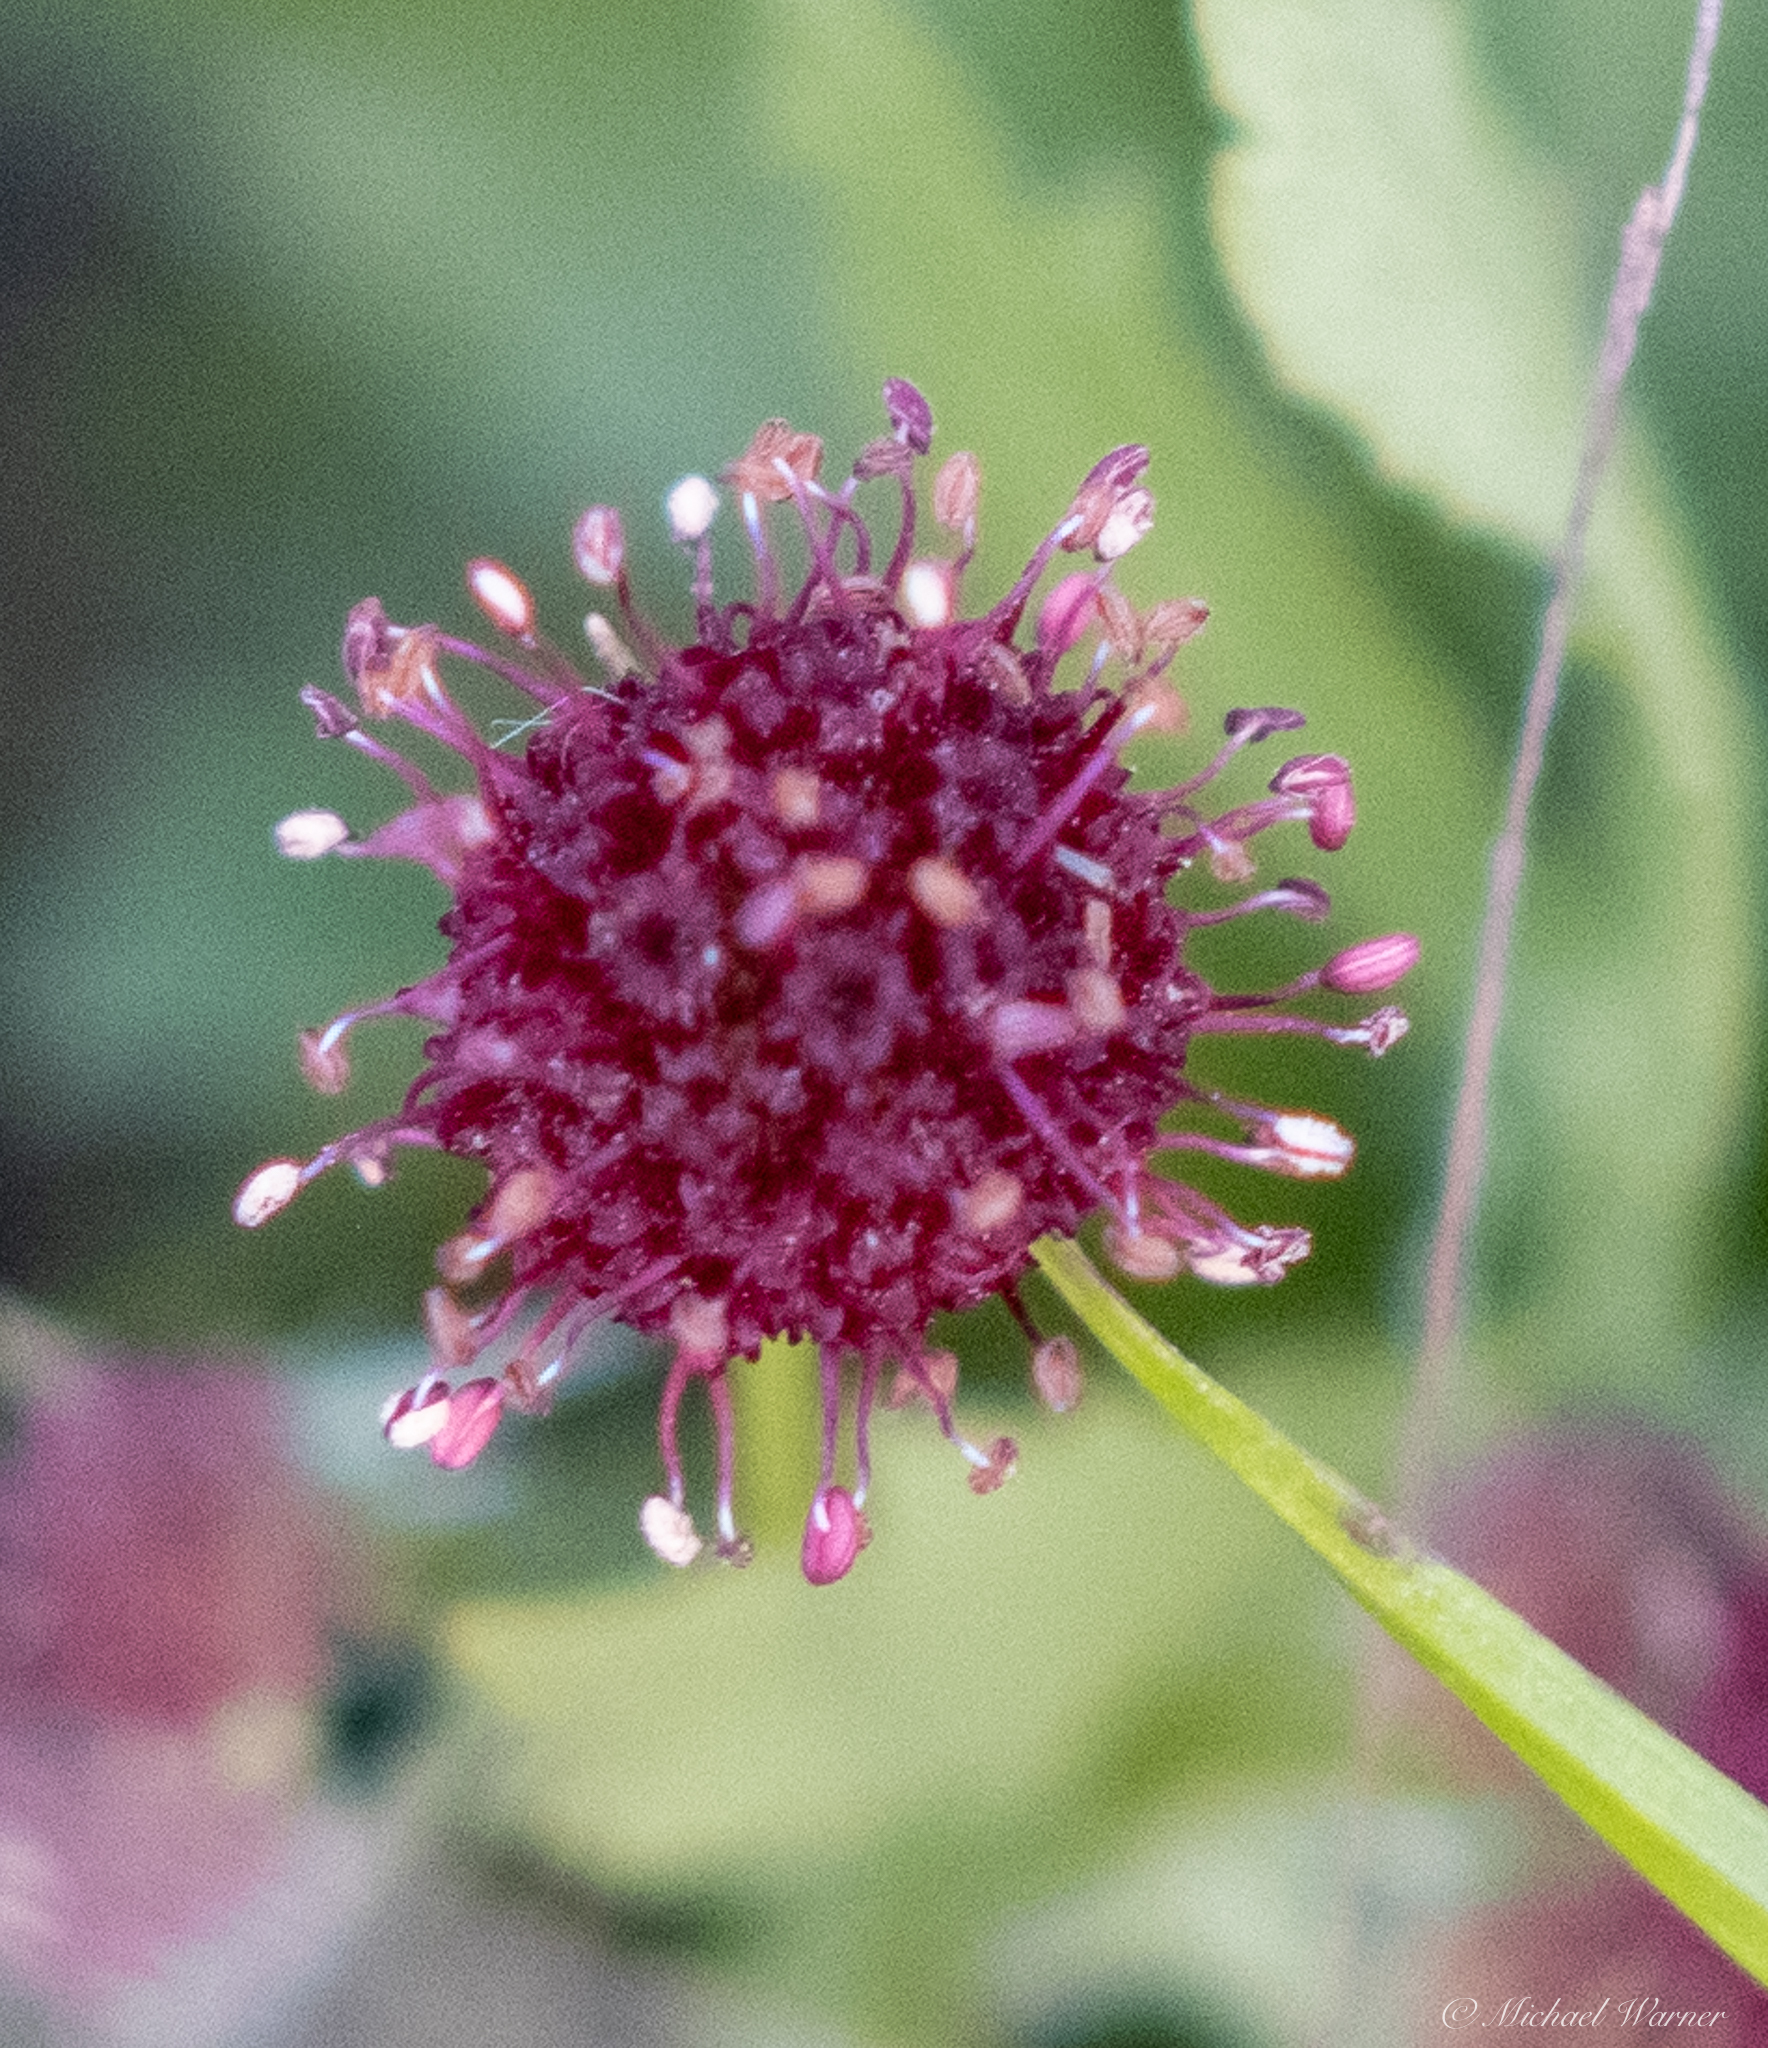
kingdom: Plantae
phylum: Tracheophyta
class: Magnoliopsida
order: Apiales
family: Apiaceae
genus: Sanicula
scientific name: Sanicula bipinnatifida
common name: Shoe-buttons
